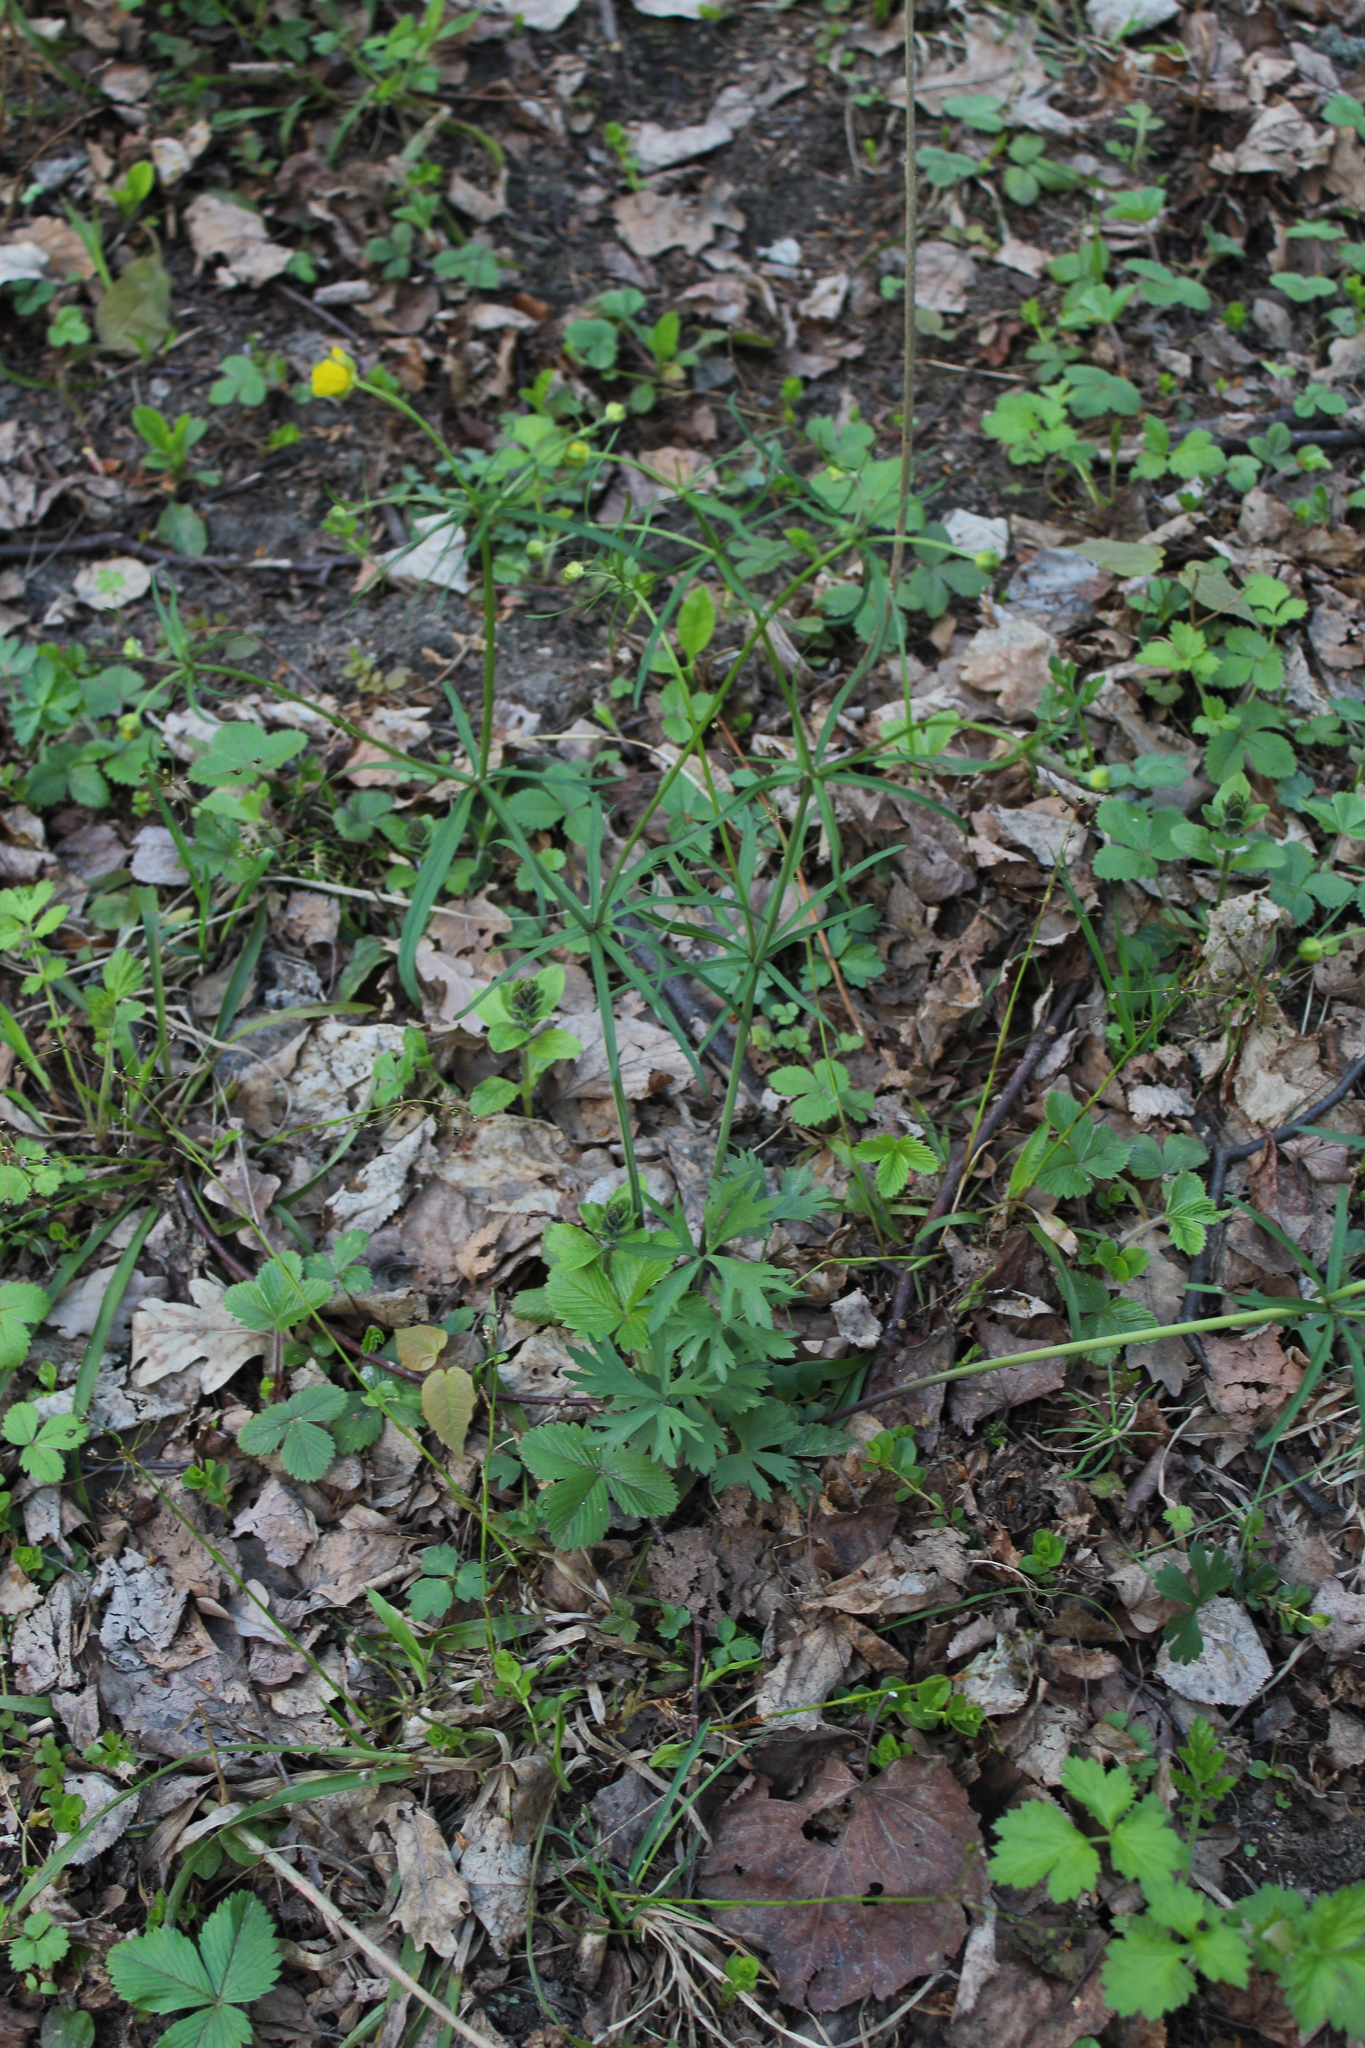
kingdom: Plantae
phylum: Tracheophyta
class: Magnoliopsida
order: Ranunculales
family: Ranunculaceae
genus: Ranunculus
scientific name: Ranunculus auricomus
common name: Goldilocks buttercup
